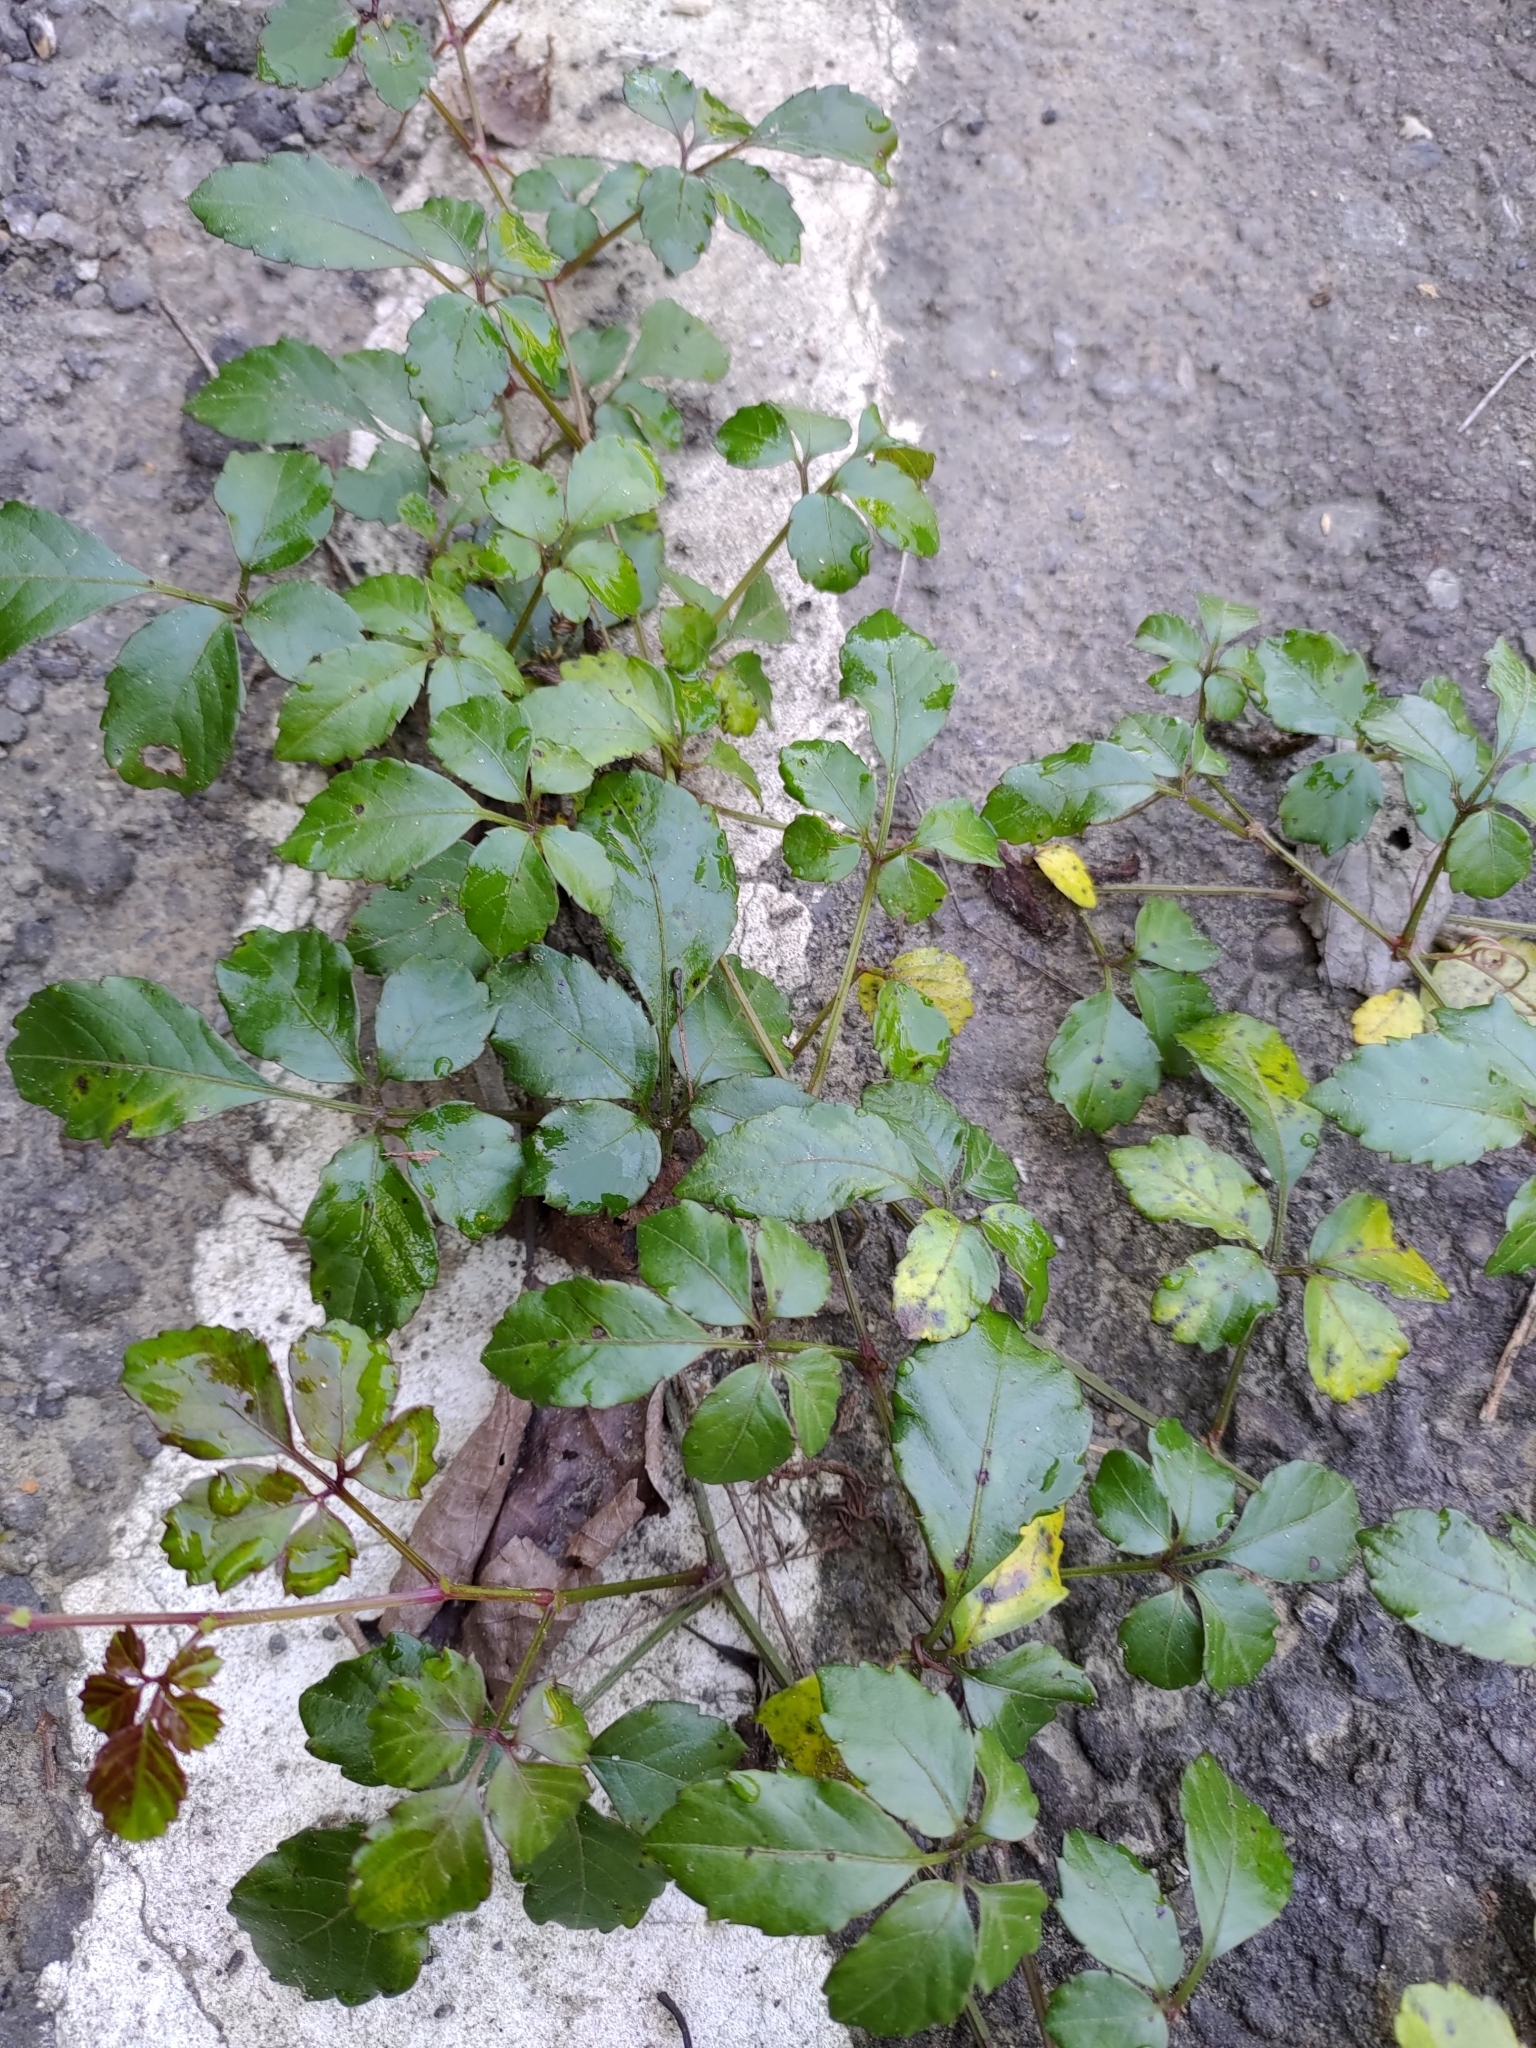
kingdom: Plantae
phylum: Tracheophyta
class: Magnoliopsida
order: Vitales
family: Vitaceae
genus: Causonis
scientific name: Causonis japonica
